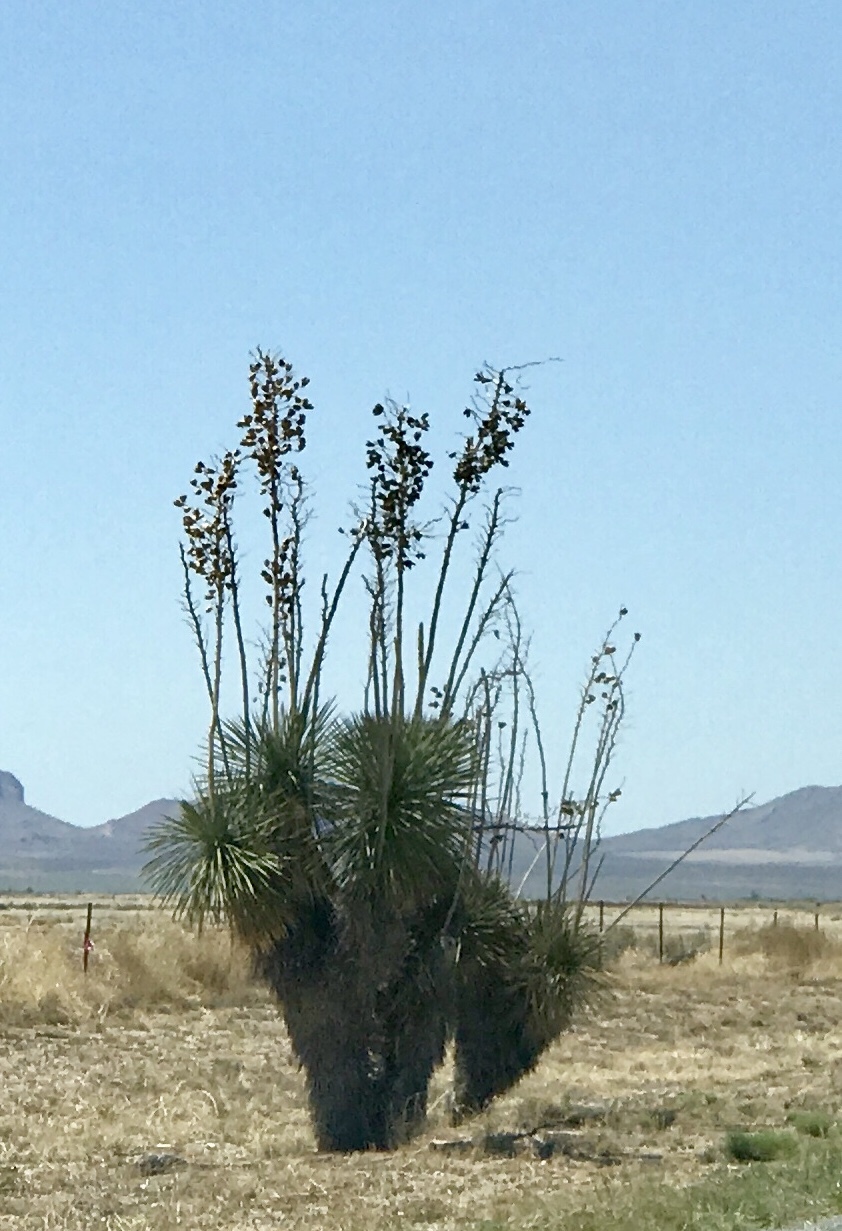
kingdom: Plantae
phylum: Tracheophyta
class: Liliopsida
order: Asparagales
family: Asparagaceae
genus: Yucca
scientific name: Yucca elata
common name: Palmella
